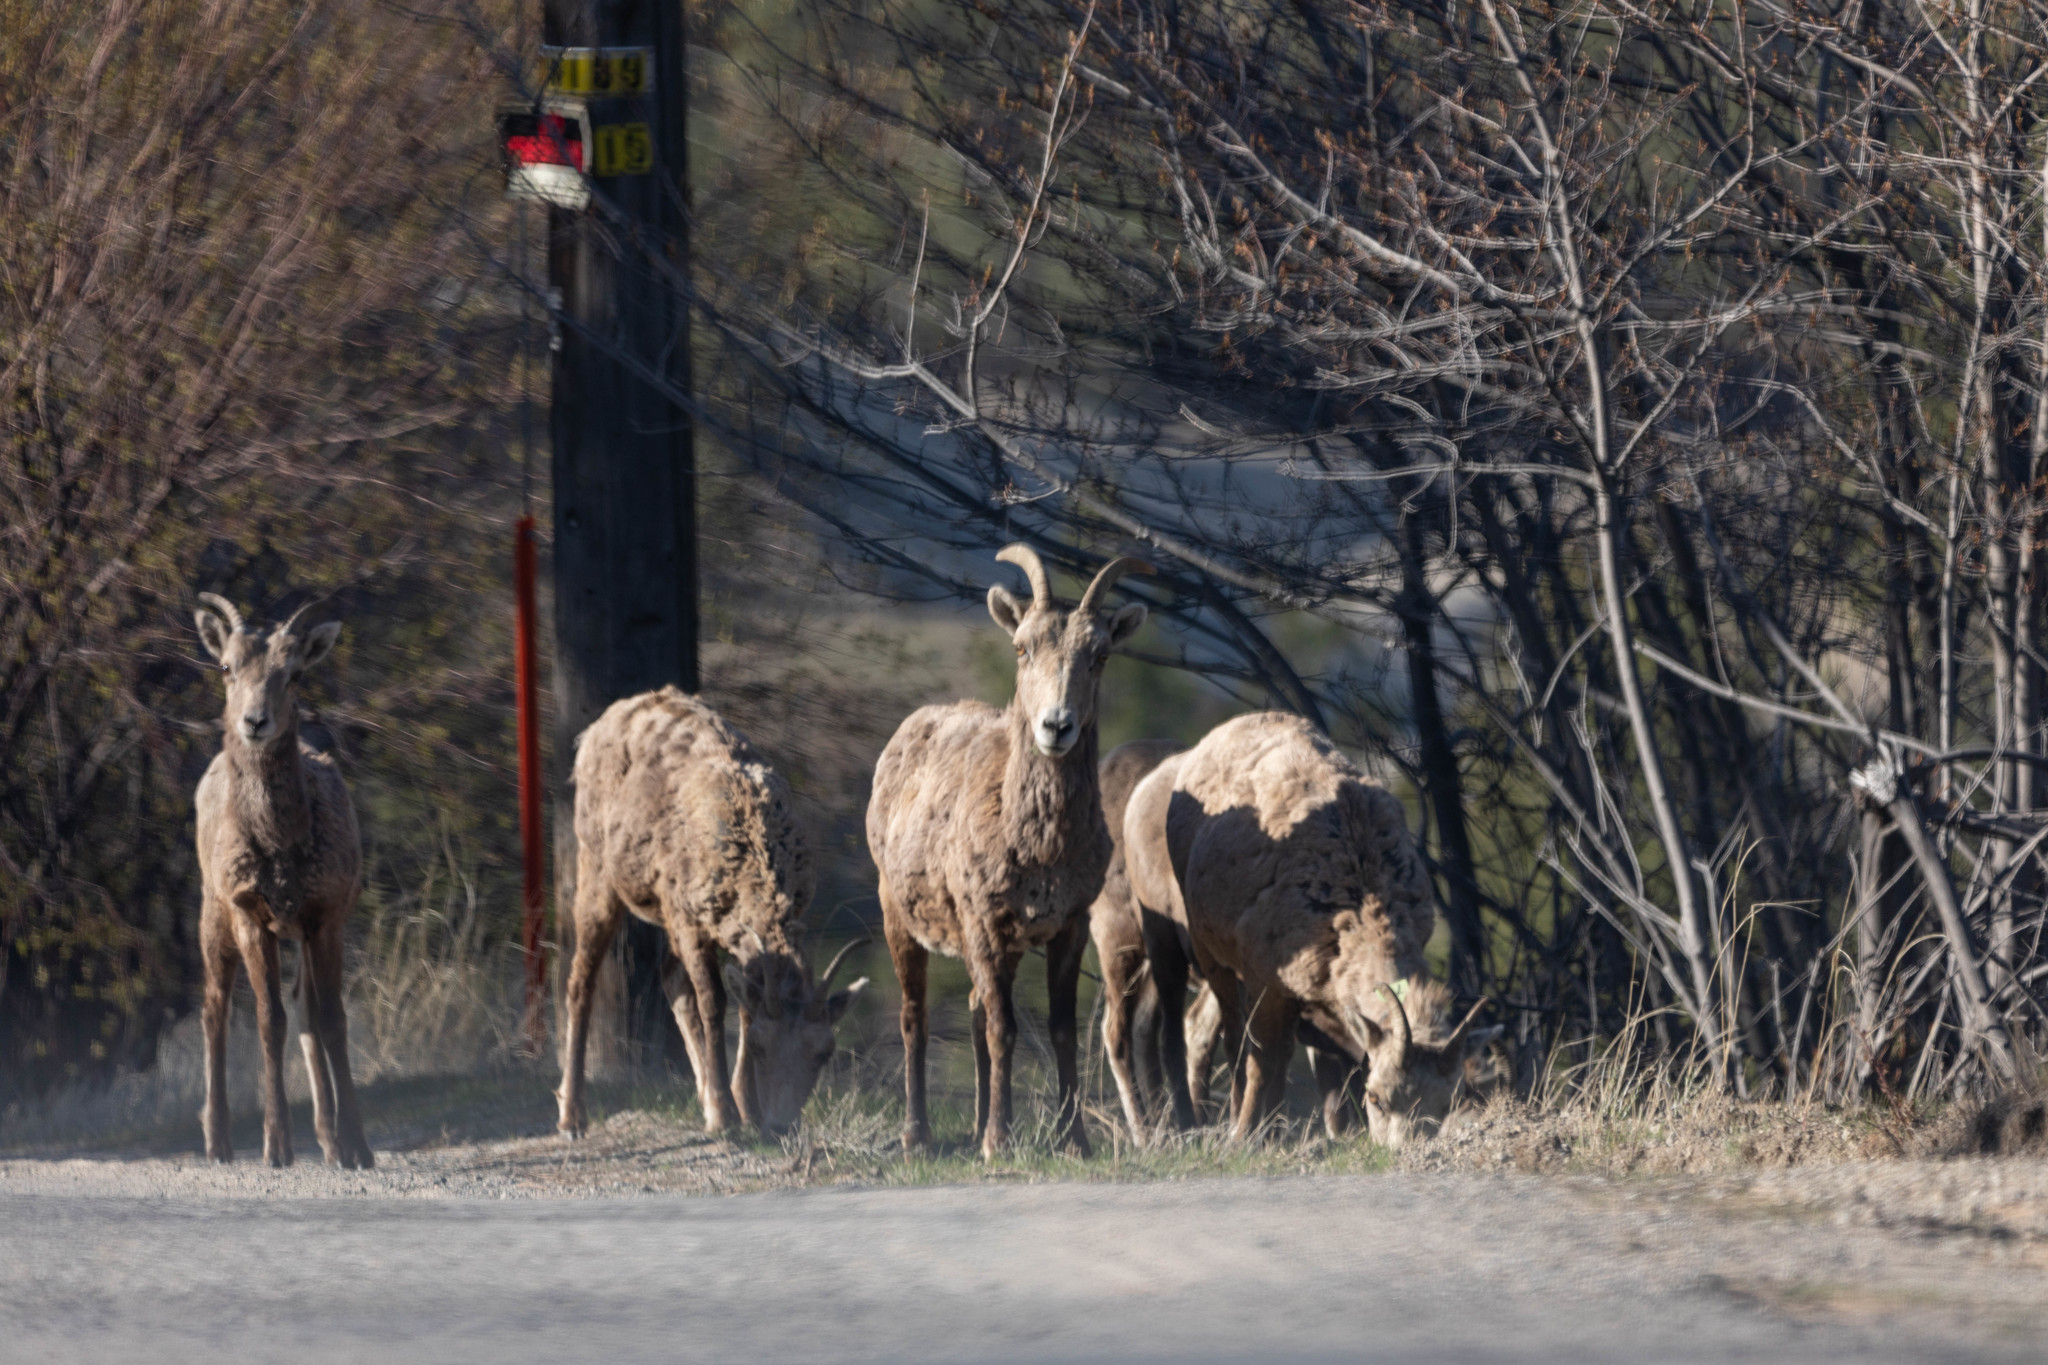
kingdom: Animalia
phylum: Chordata
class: Mammalia
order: Artiodactyla
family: Bovidae
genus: Ovis
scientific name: Ovis canadensis
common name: Bighorn sheep
